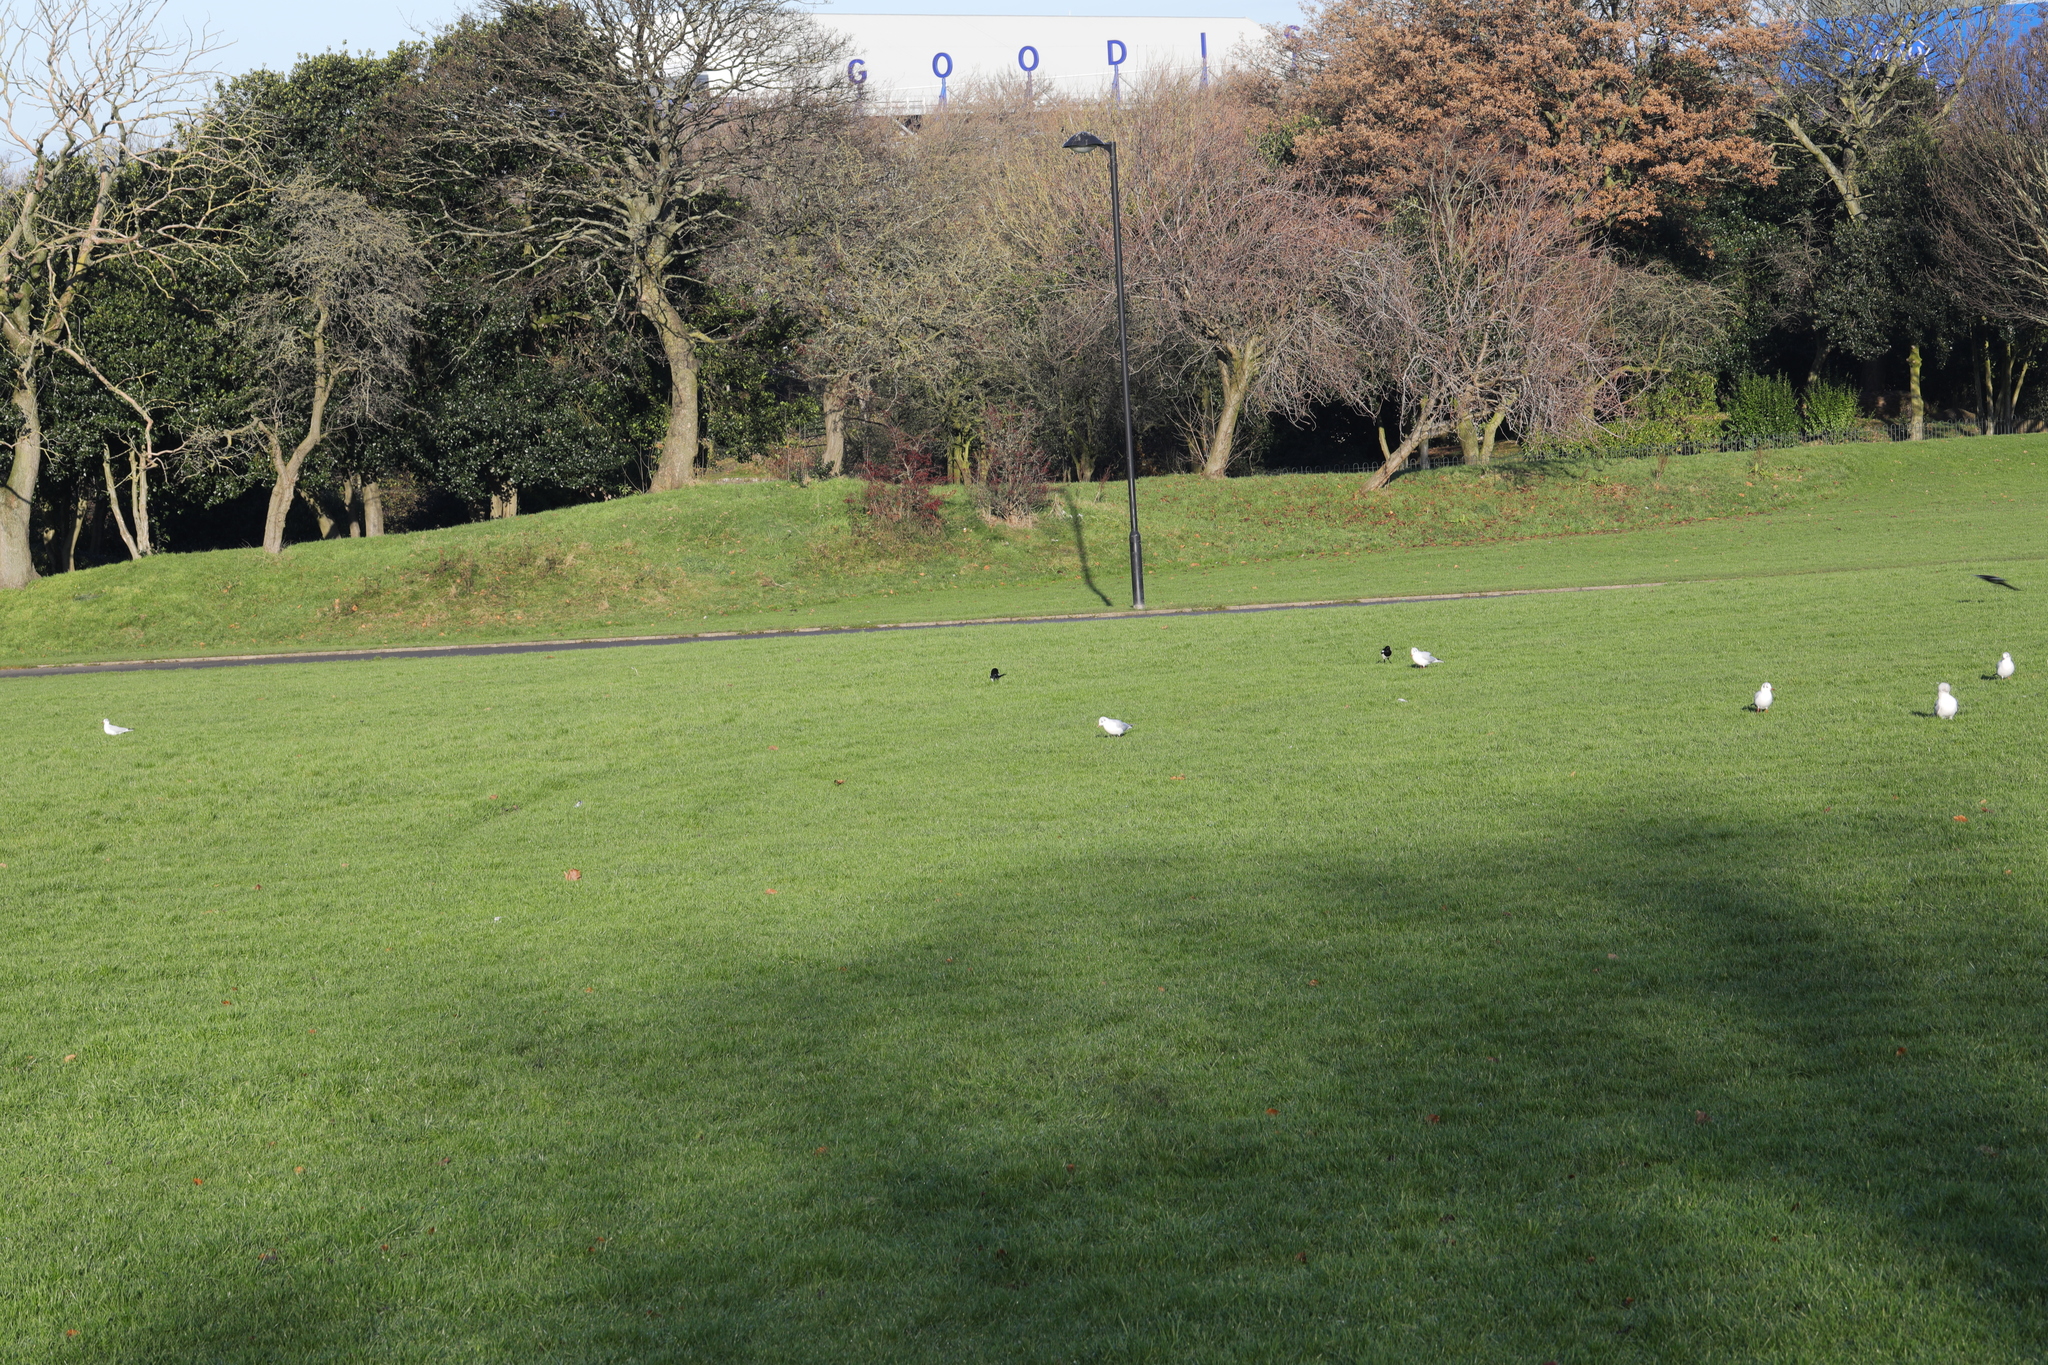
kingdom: Animalia
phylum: Chordata
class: Aves
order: Passeriformes
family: Corvidae
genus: Pica
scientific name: Pica pica
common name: Eurasian magpie
